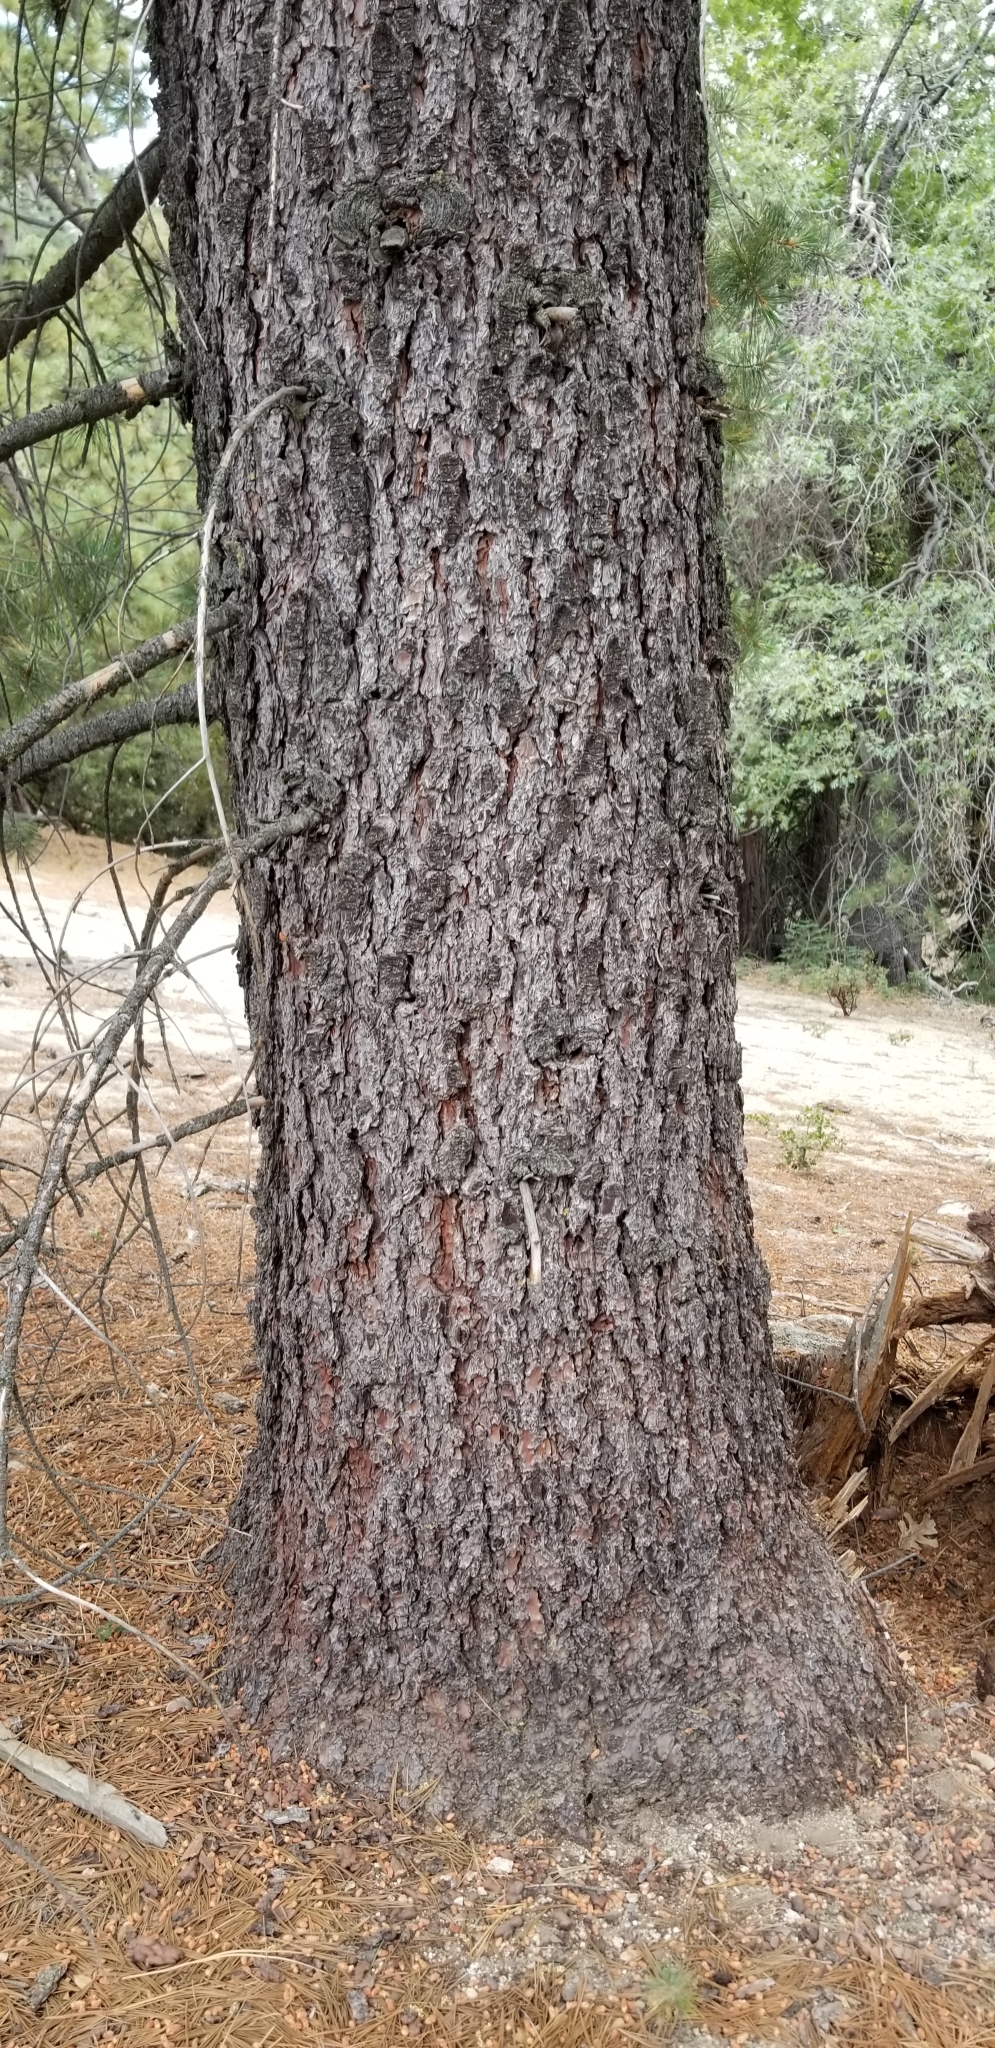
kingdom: Plantae
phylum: Tracheophyta
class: Pinopsida
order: Pinales
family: Pinaceae
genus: Pinus
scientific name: Pinus lambertiana
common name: Sugar pine
